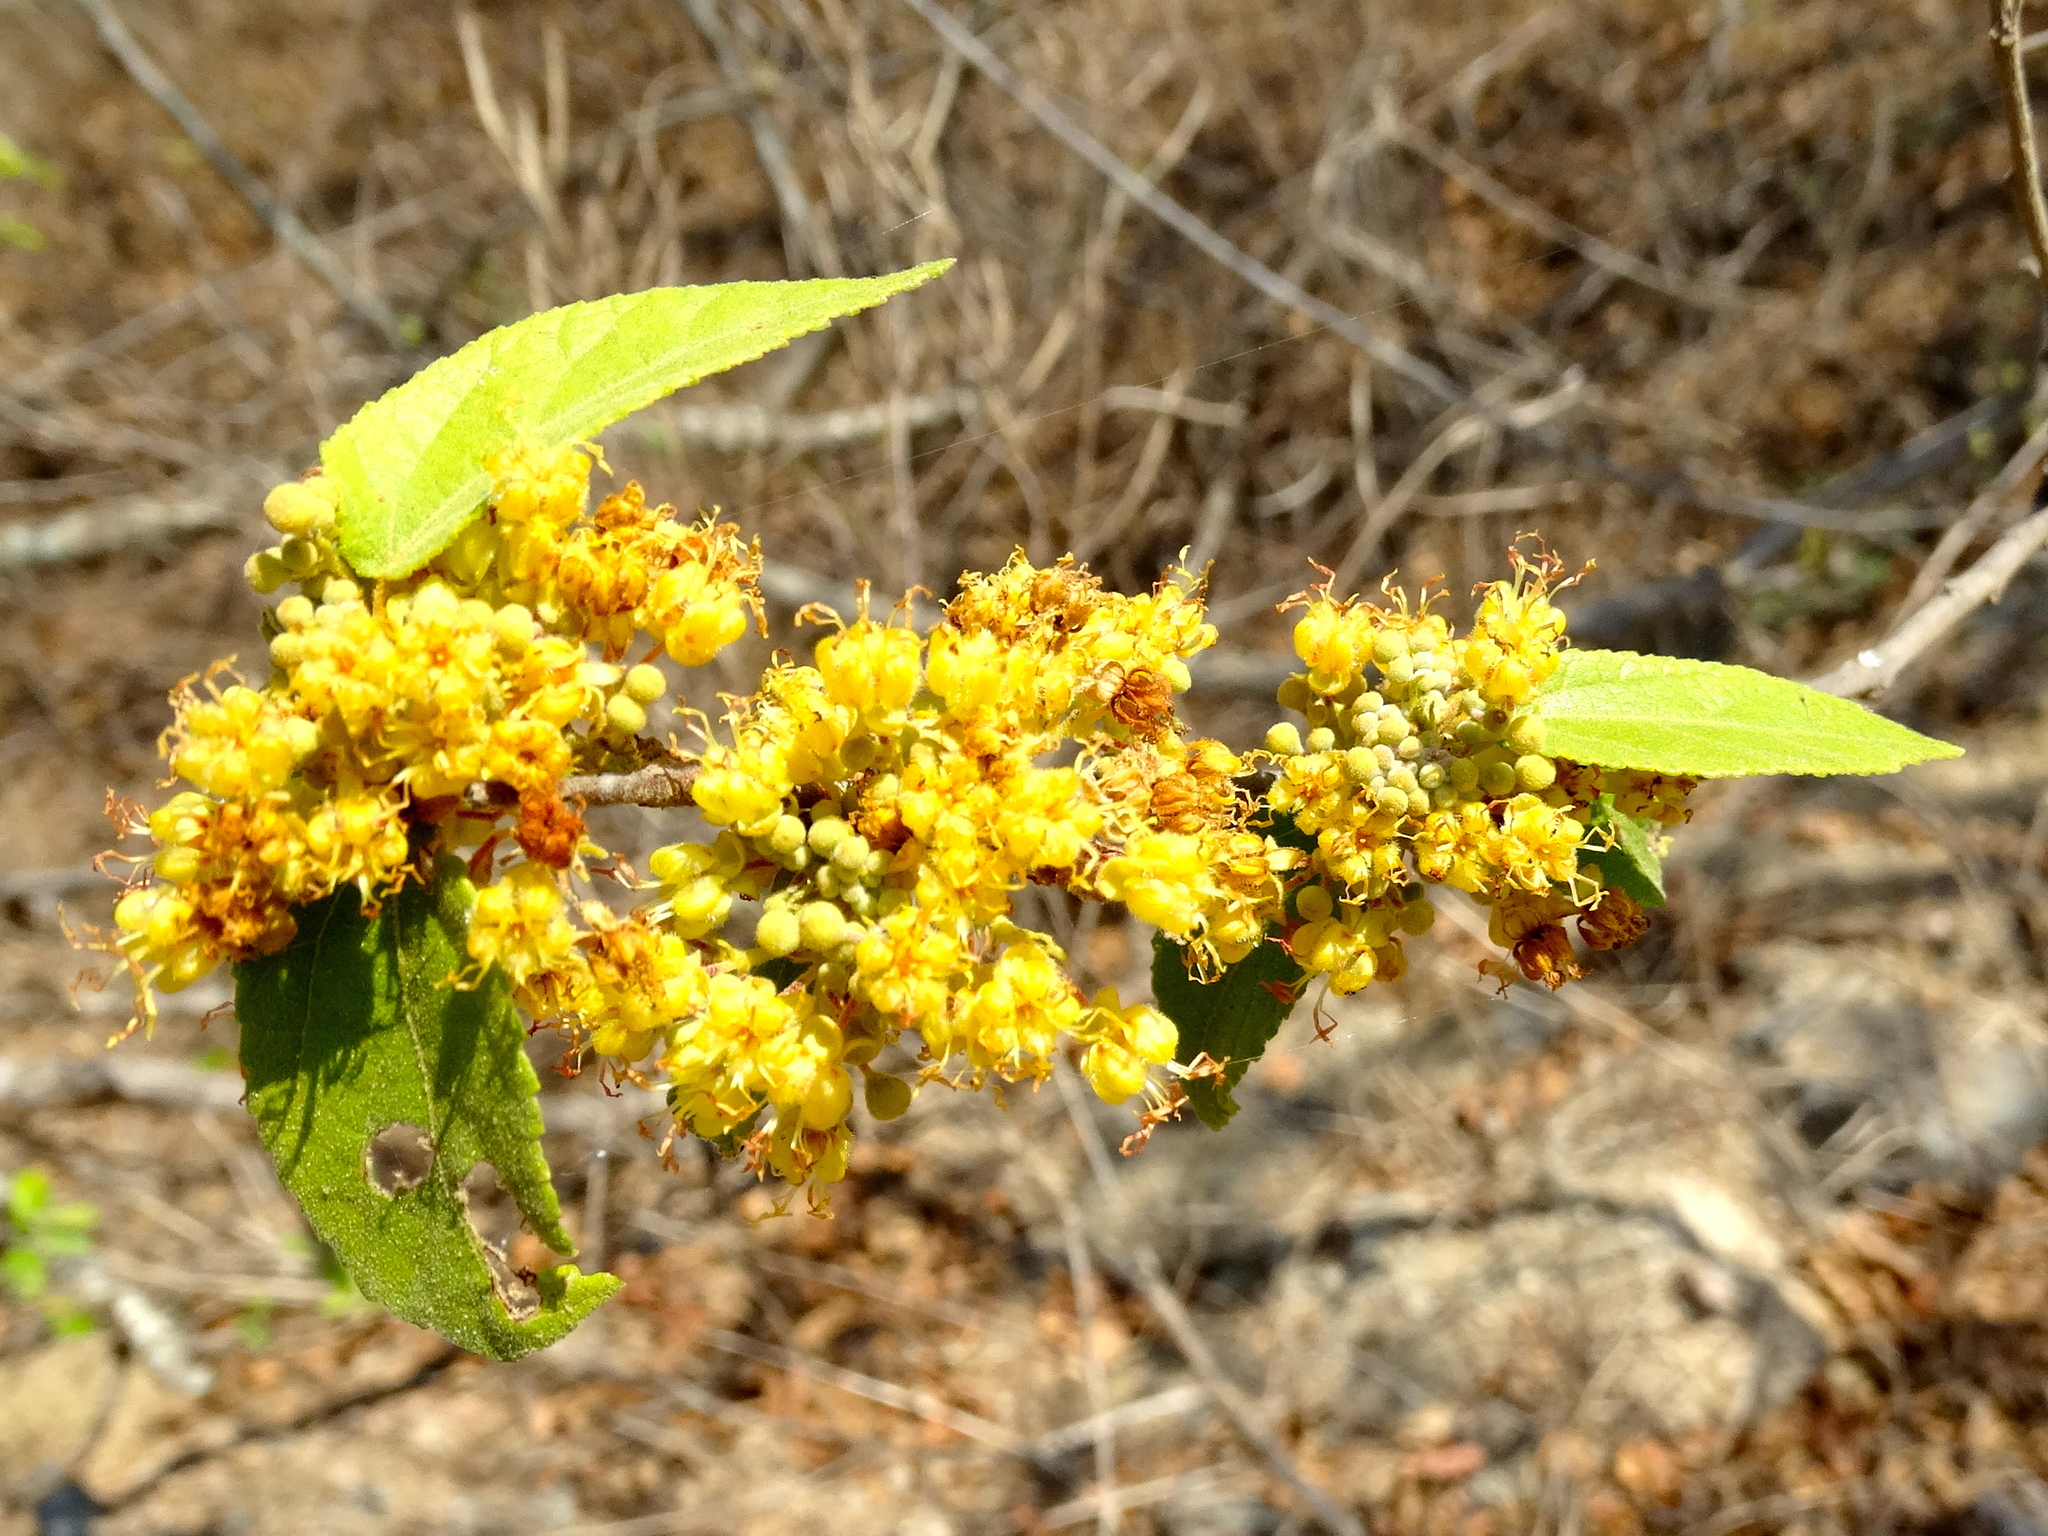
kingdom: Plantae
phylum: Tracheophyta
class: Magnoliopsida
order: Malvales
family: Malvaceae
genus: Guazuma
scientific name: Guazuma ulmifolia
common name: Bastard-cedar
